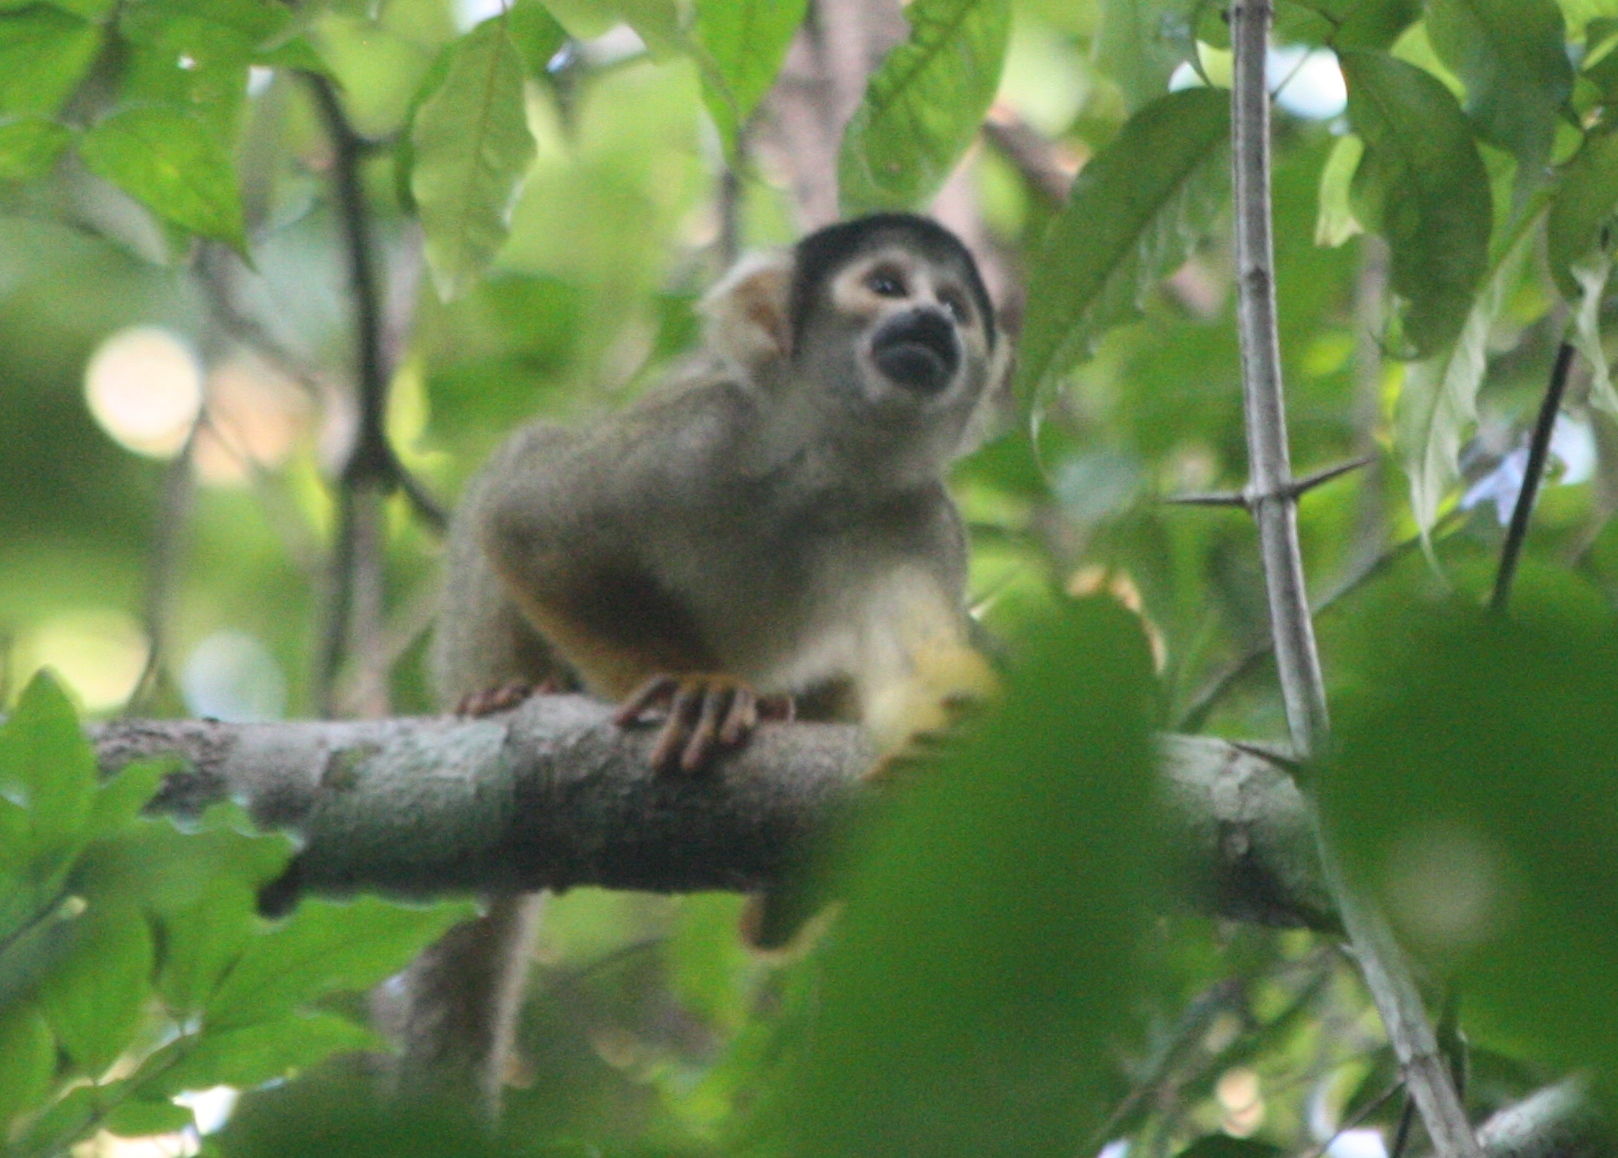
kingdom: Animalia
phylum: Chordata
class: Mammalia
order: Primates
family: Cebidae
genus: Saimiri
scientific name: Saimiri boliviensis
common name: Black-capped squirrel monkey
